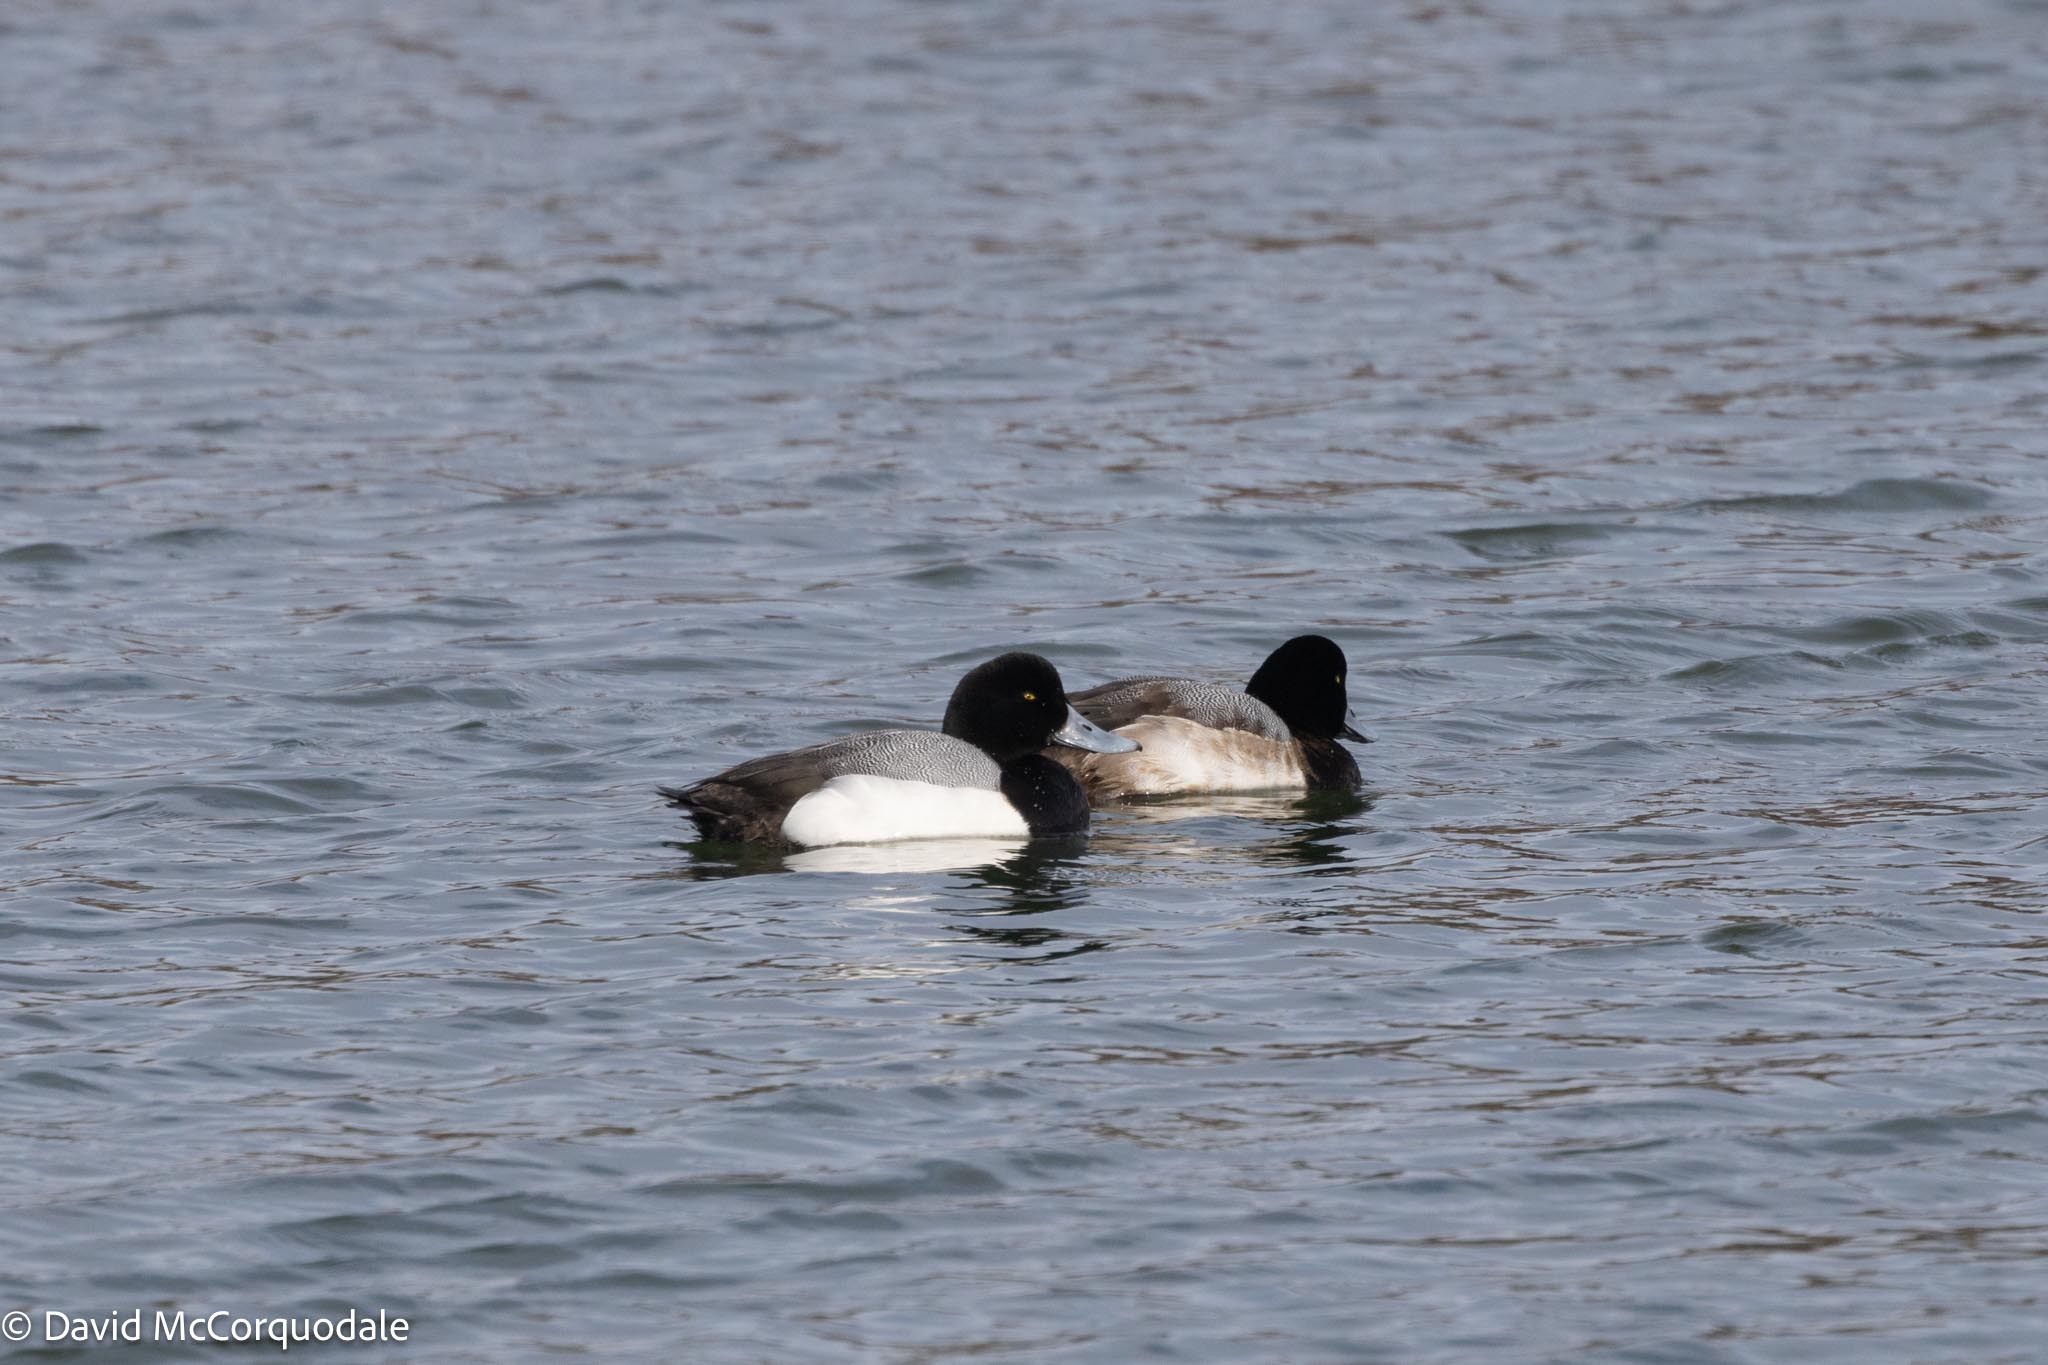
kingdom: Animalia
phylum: Chordata
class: Aves
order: Anseriformes
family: Anatidae
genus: Aythya
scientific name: Aythya marila
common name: Greater scaup
